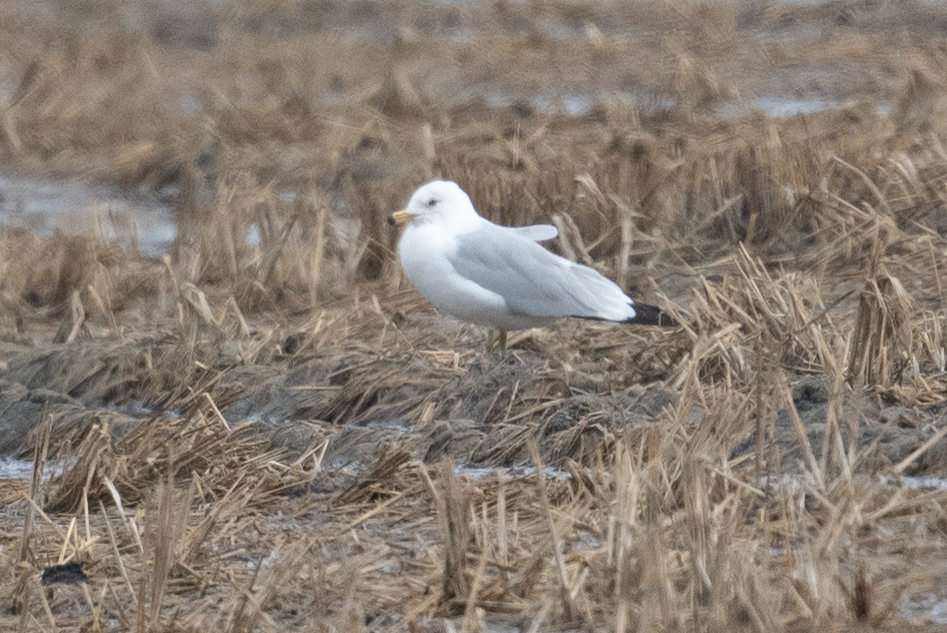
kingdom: Animalia
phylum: Chordata
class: Aves
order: Charadriiformes
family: Laridae
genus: Larus
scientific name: Larus delawarensis
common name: Ring-billed gull
